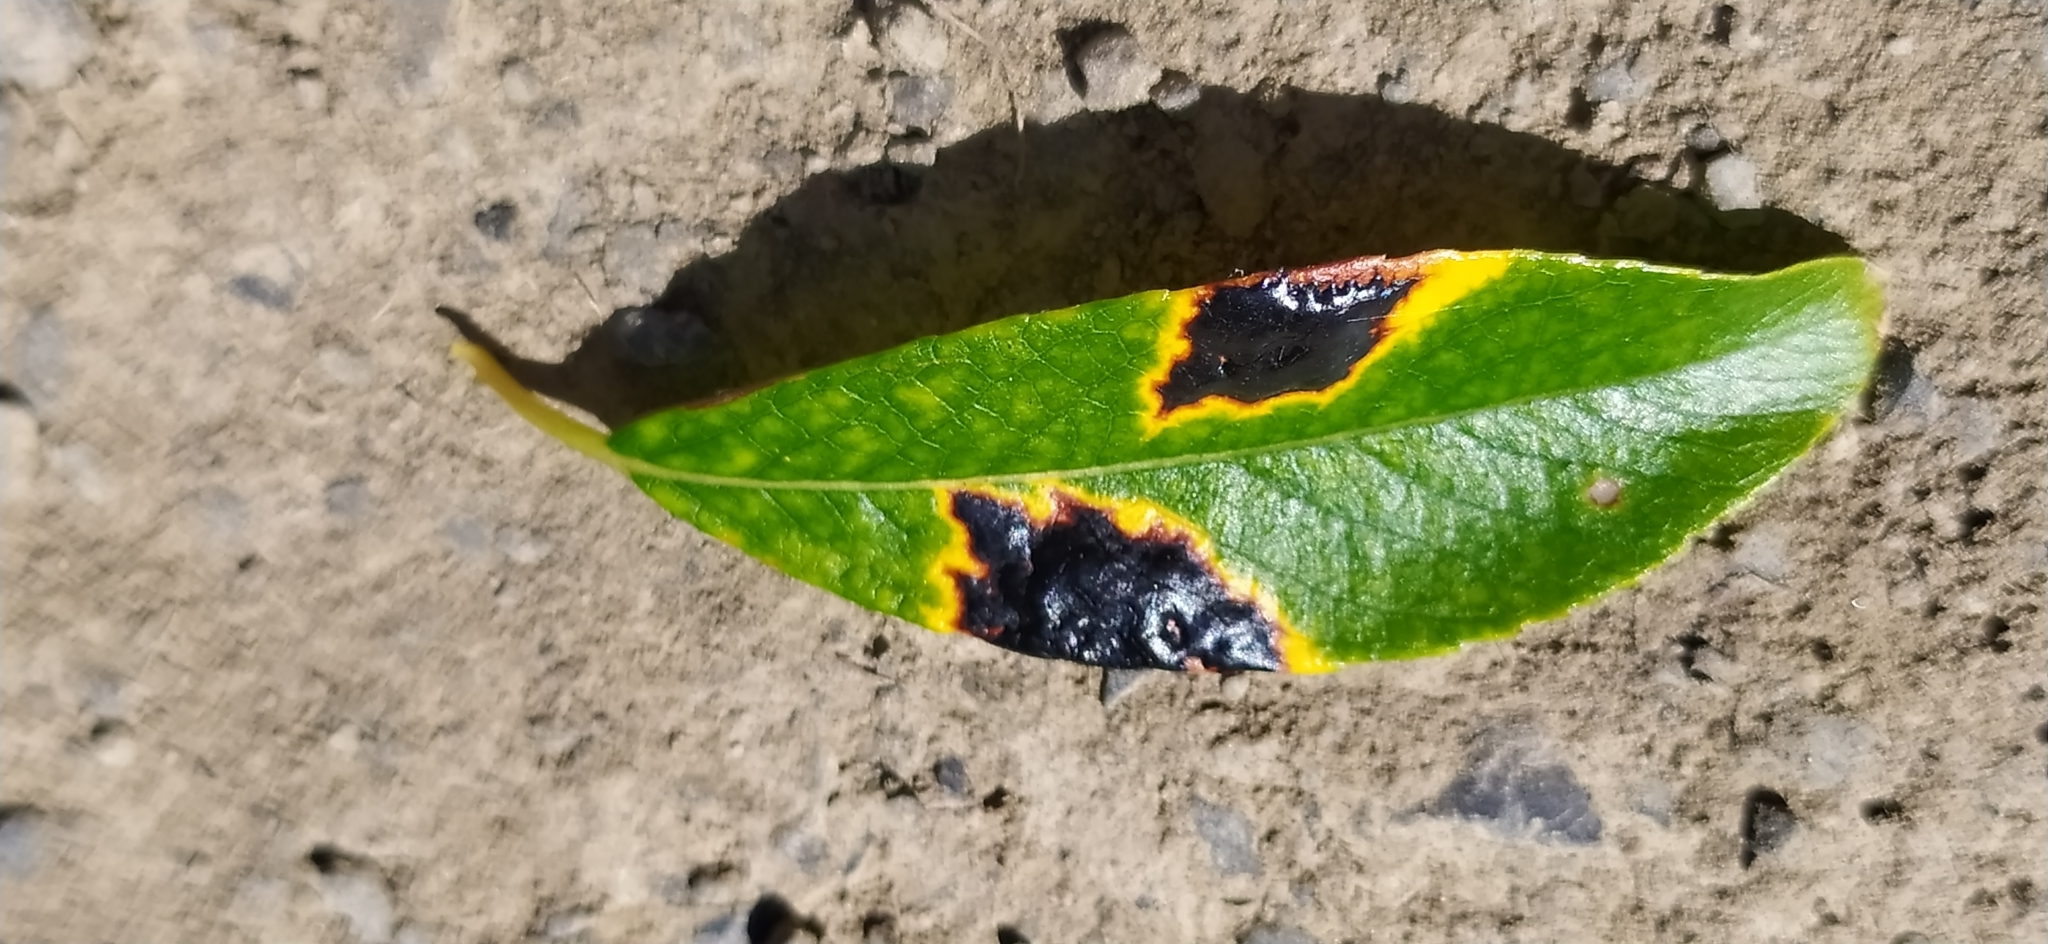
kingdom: Fungi
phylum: Ascomycota
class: Leotiomycetes
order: Rhytismatales
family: Rhytismataceae
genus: Rhytisma
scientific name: Rhytisma salicinum
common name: Willow tarspot
